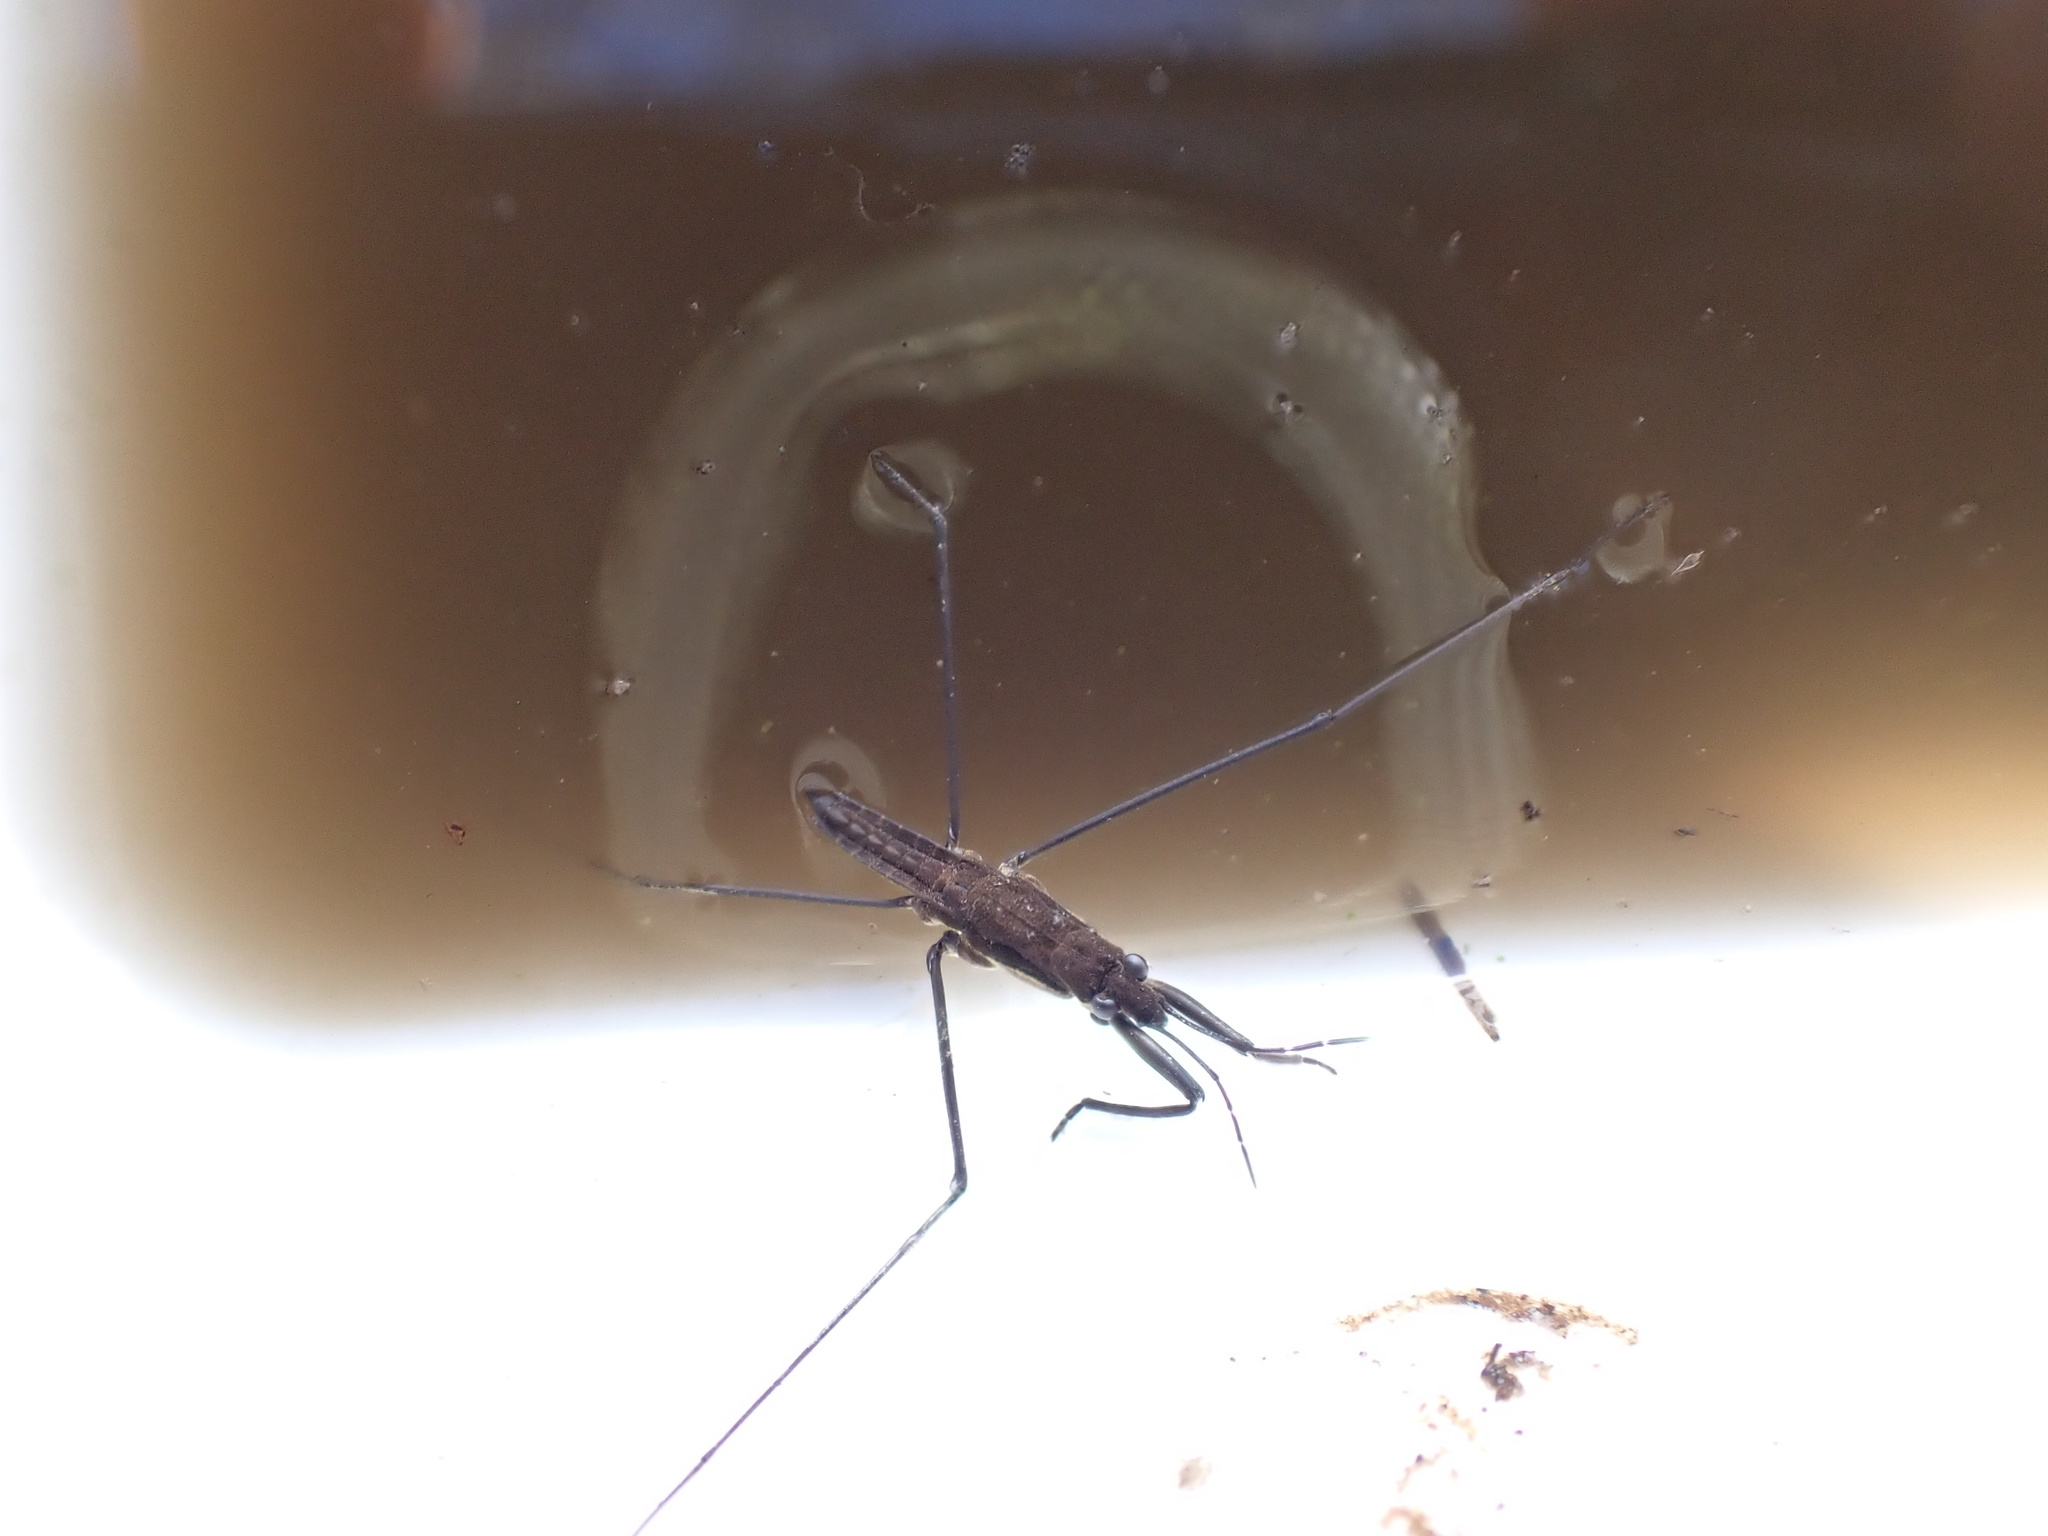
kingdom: Animalia
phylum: Arthropoda
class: Insecta
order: Hemiptera
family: Gerridae
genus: Aquarius
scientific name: Aquarius najas
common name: River skater
